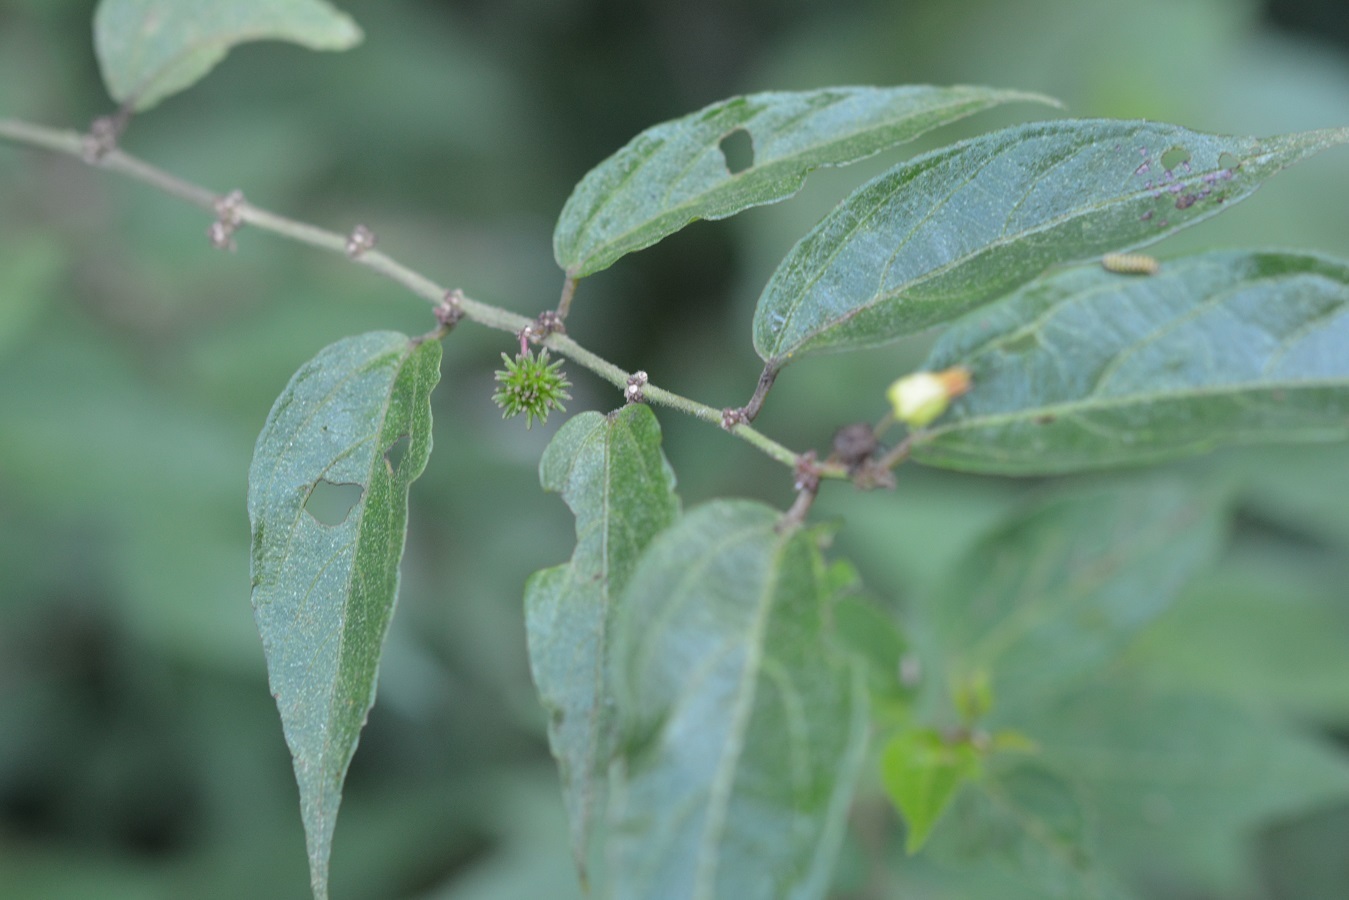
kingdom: Plantae
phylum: Tracheophyta
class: Magnoliopsida
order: Malvales
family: Malvaceae
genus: Byttneria
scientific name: Byttneria aculeata
